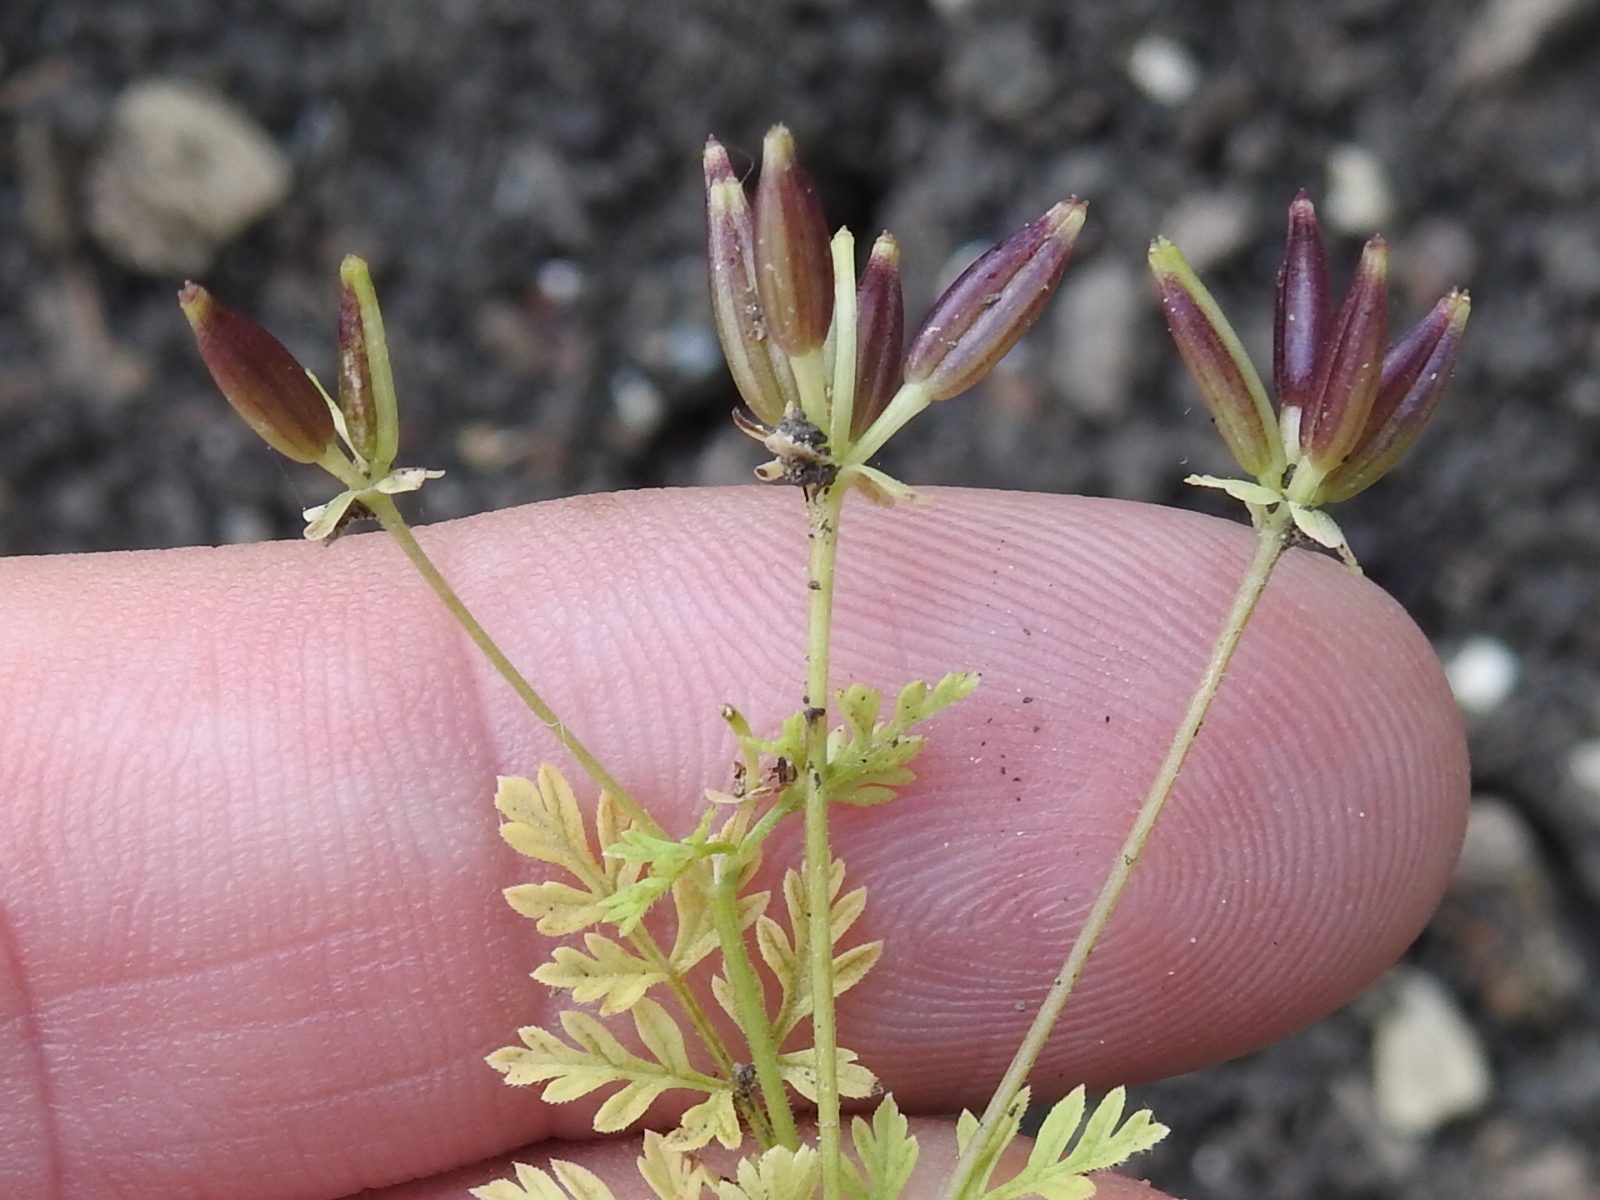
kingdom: Plantae
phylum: Tracheophyta
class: Magnoliopsida
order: Apiales
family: Apiaceae
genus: Chaerophyllum
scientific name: Chaerophyllum tainturieri
